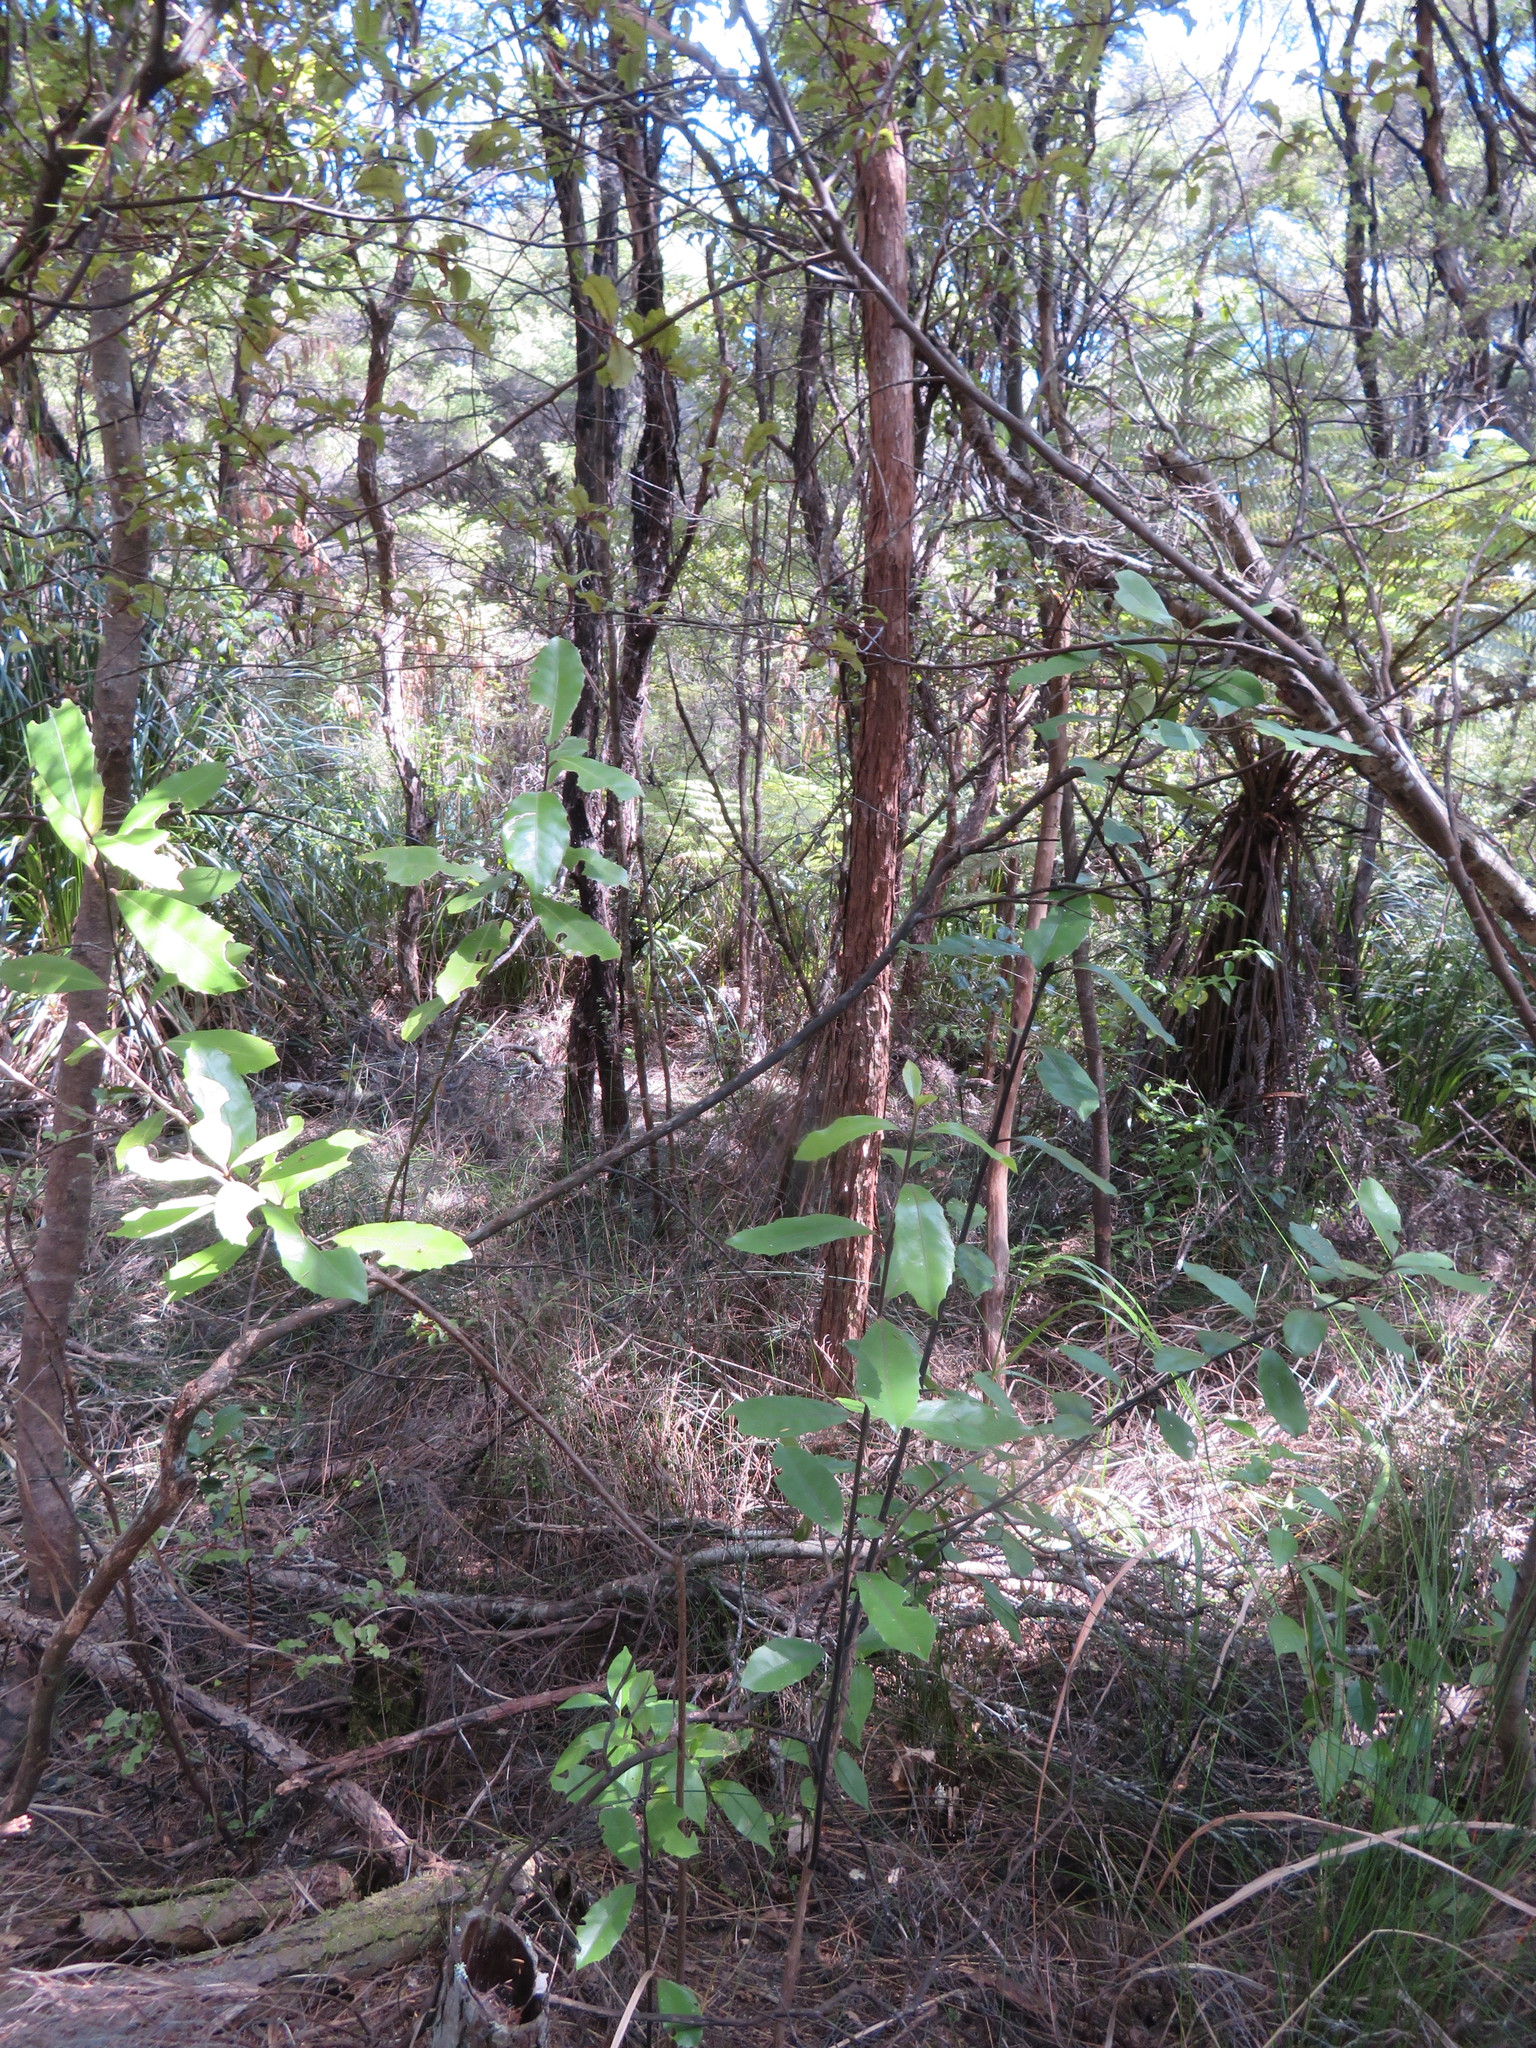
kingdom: Plantae
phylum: Tracheophyta
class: Magnoliopsida
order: Laurales
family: Monimiaceae
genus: Hedycarya
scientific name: Hedycarya arborea
